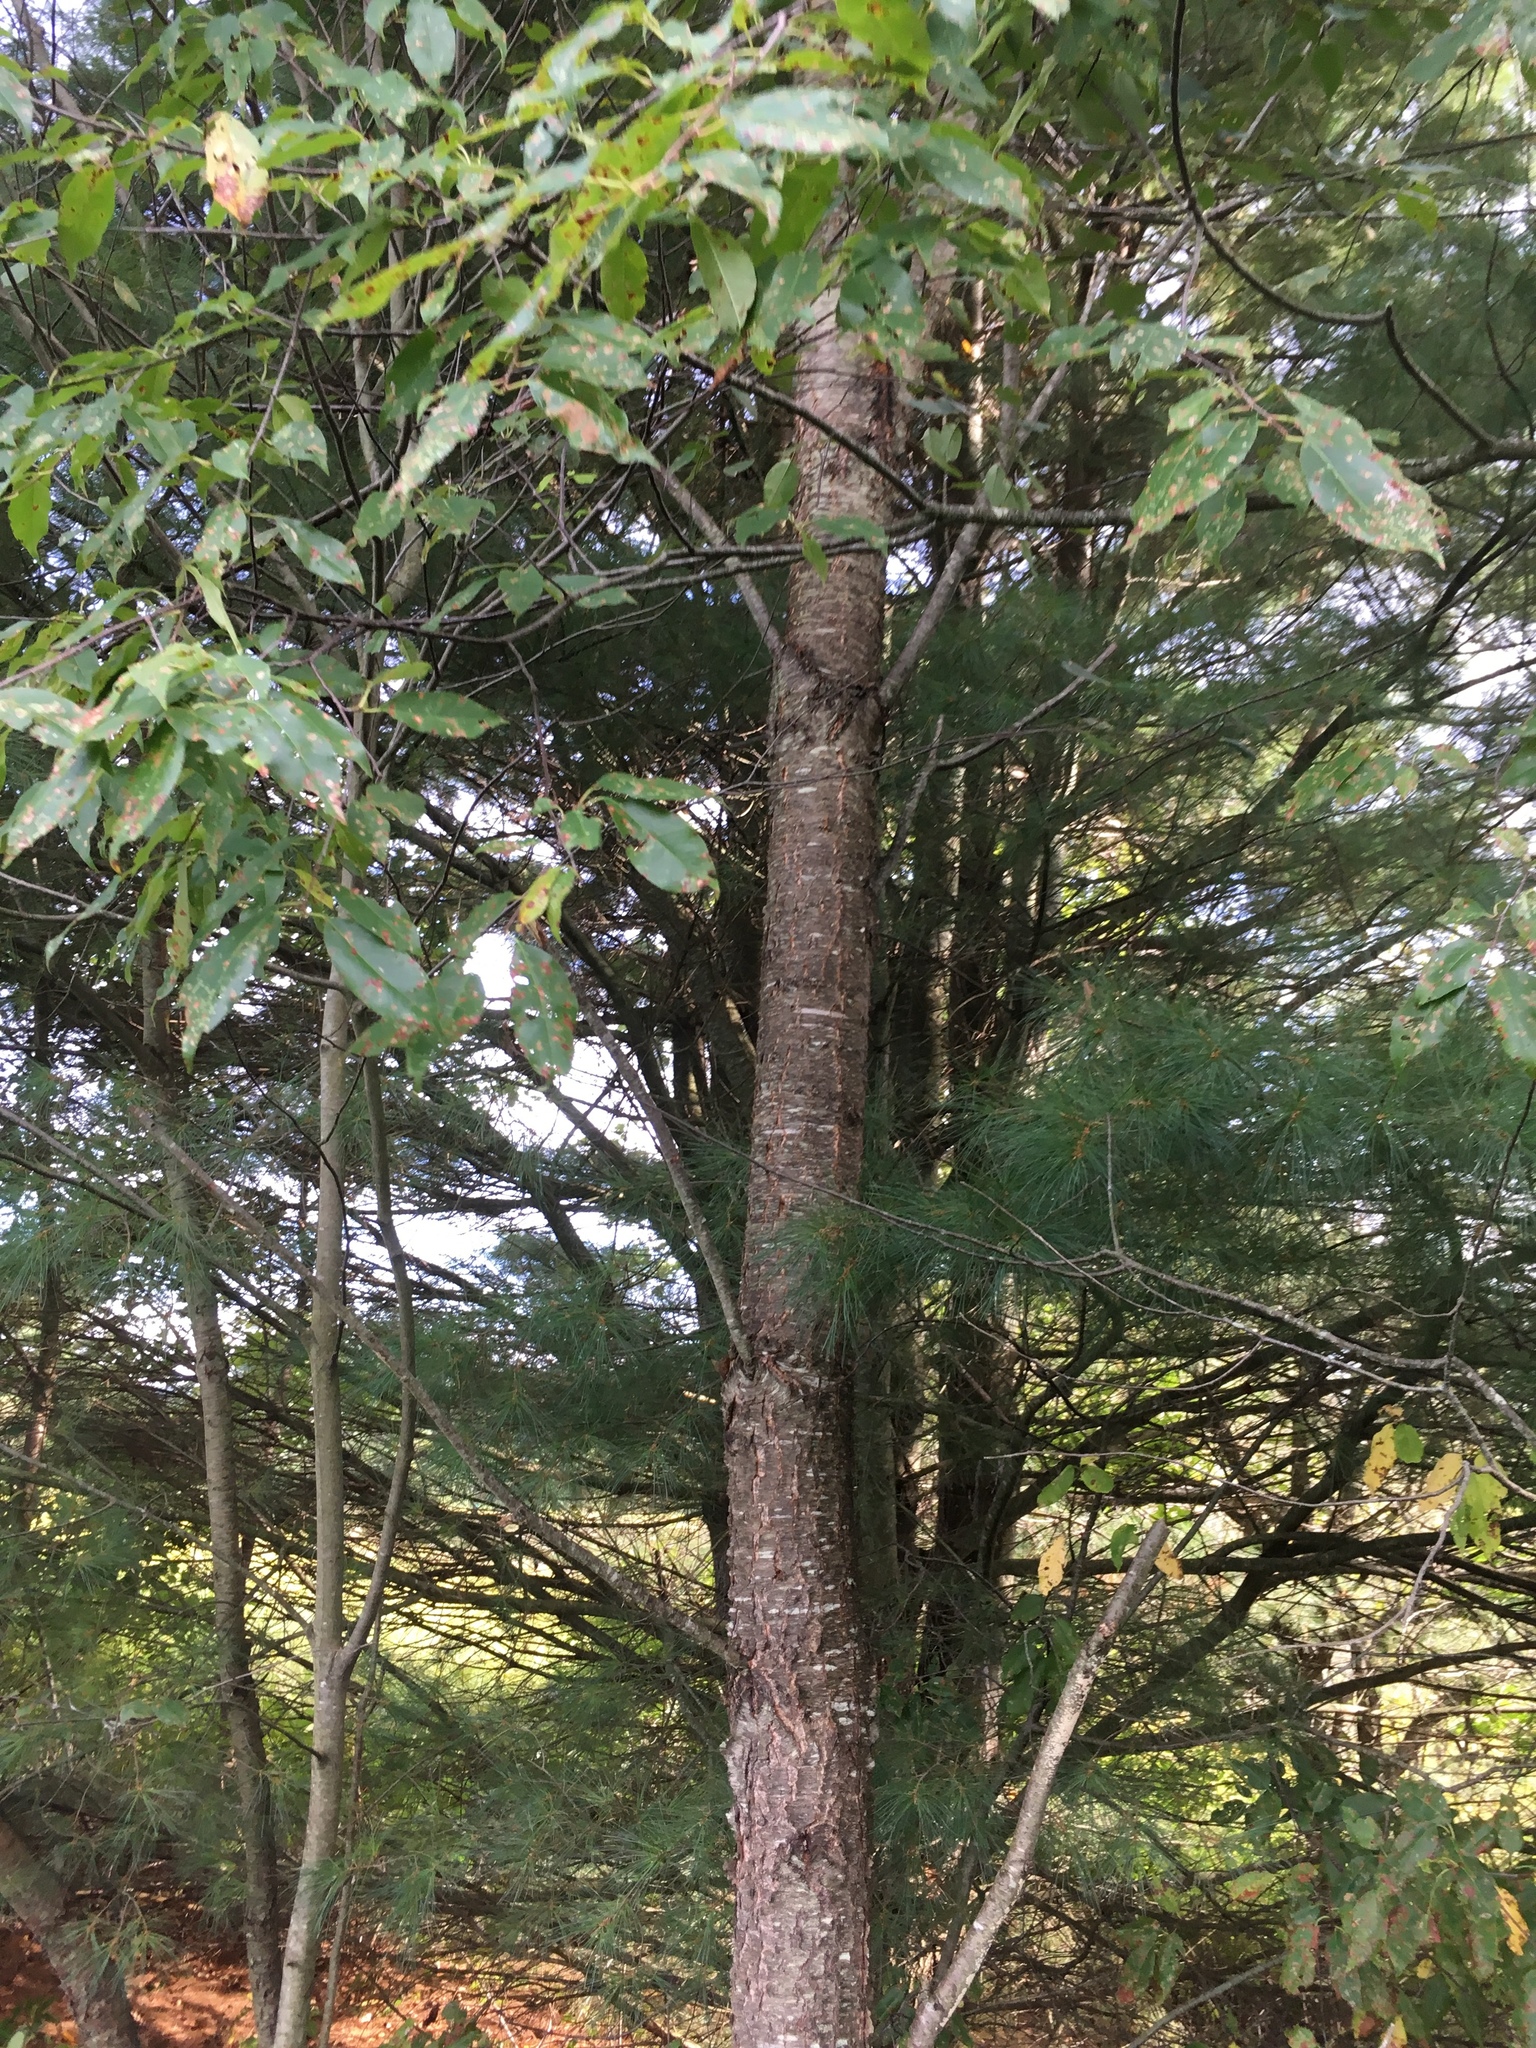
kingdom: Plantae
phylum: Tracheophyta
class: Magnoliopsida
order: Rosales
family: Rosaceae
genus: Prunus
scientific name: Prunus serotina
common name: Black cherry
